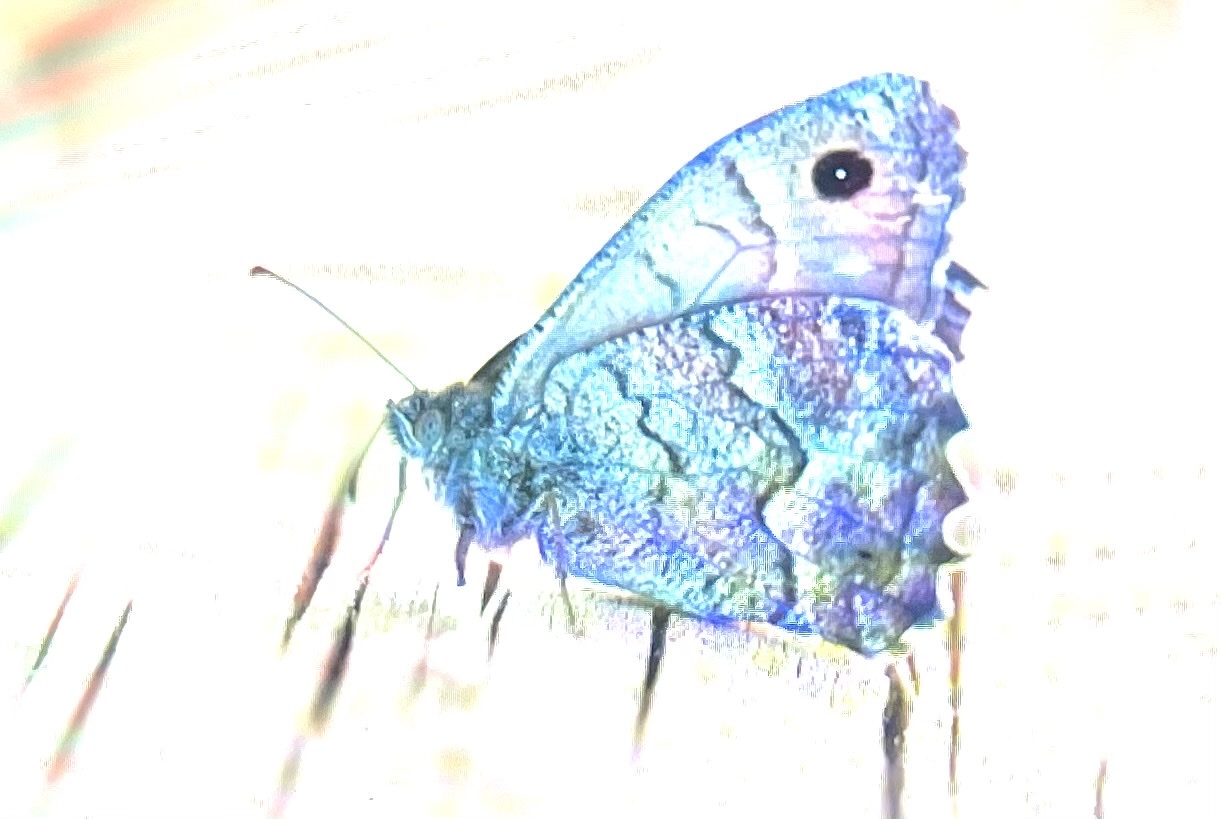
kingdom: Animalia
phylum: Arthropoda
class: Insecta
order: Lepidoptera
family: Nymphalidae
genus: Hipparchia
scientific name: Hipparchia tamadabae
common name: Gran canaria grayling
